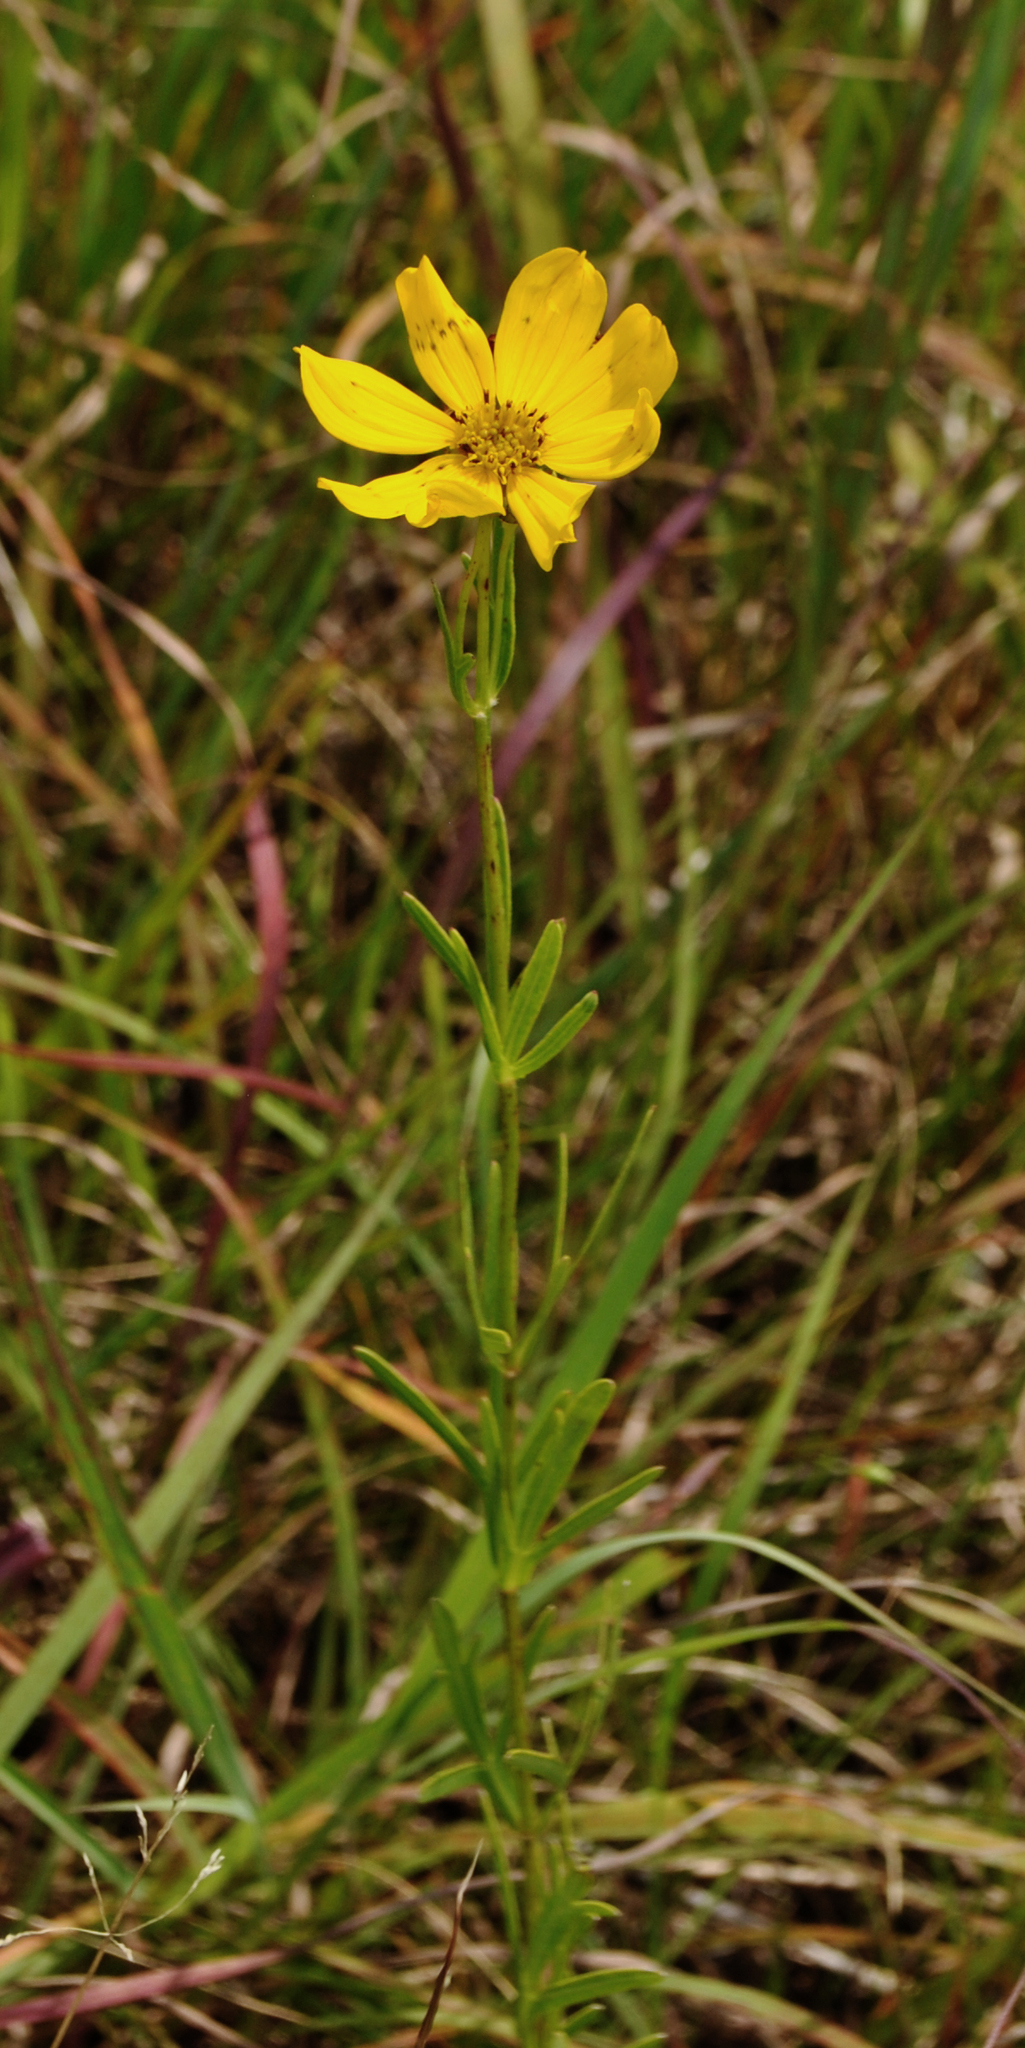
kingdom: Plantae
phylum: Tracheophyta
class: Magnoliopsida
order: Asterales
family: Asteraceae
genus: Coreopsis
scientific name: Coreopsis palmata
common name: Prairie coreopsis
